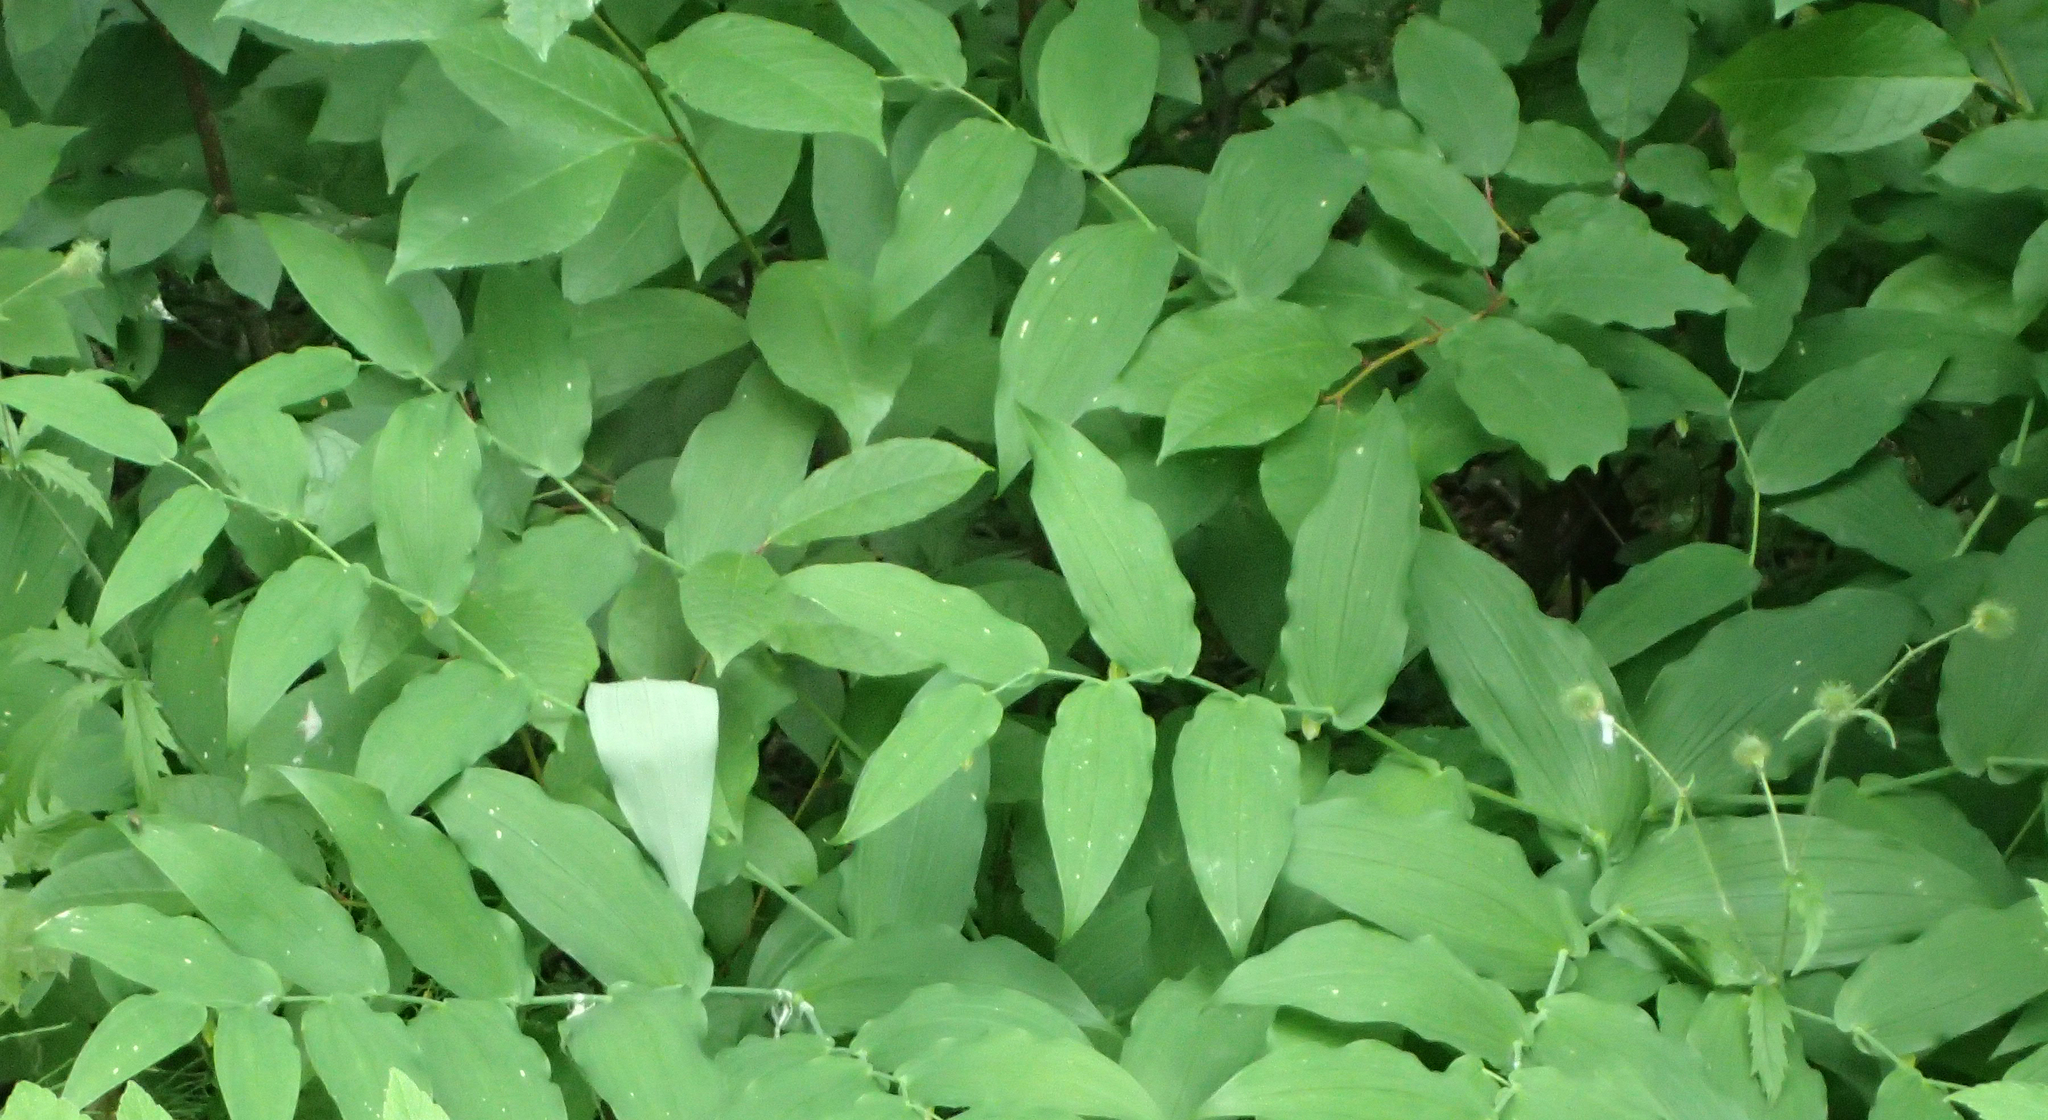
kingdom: Plantae
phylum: Tracheophyta
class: Liliopsida
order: Liliales
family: Liliaceae
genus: Streptopus
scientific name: Streptopus amplexifolius
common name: Clasp twisted stalk
